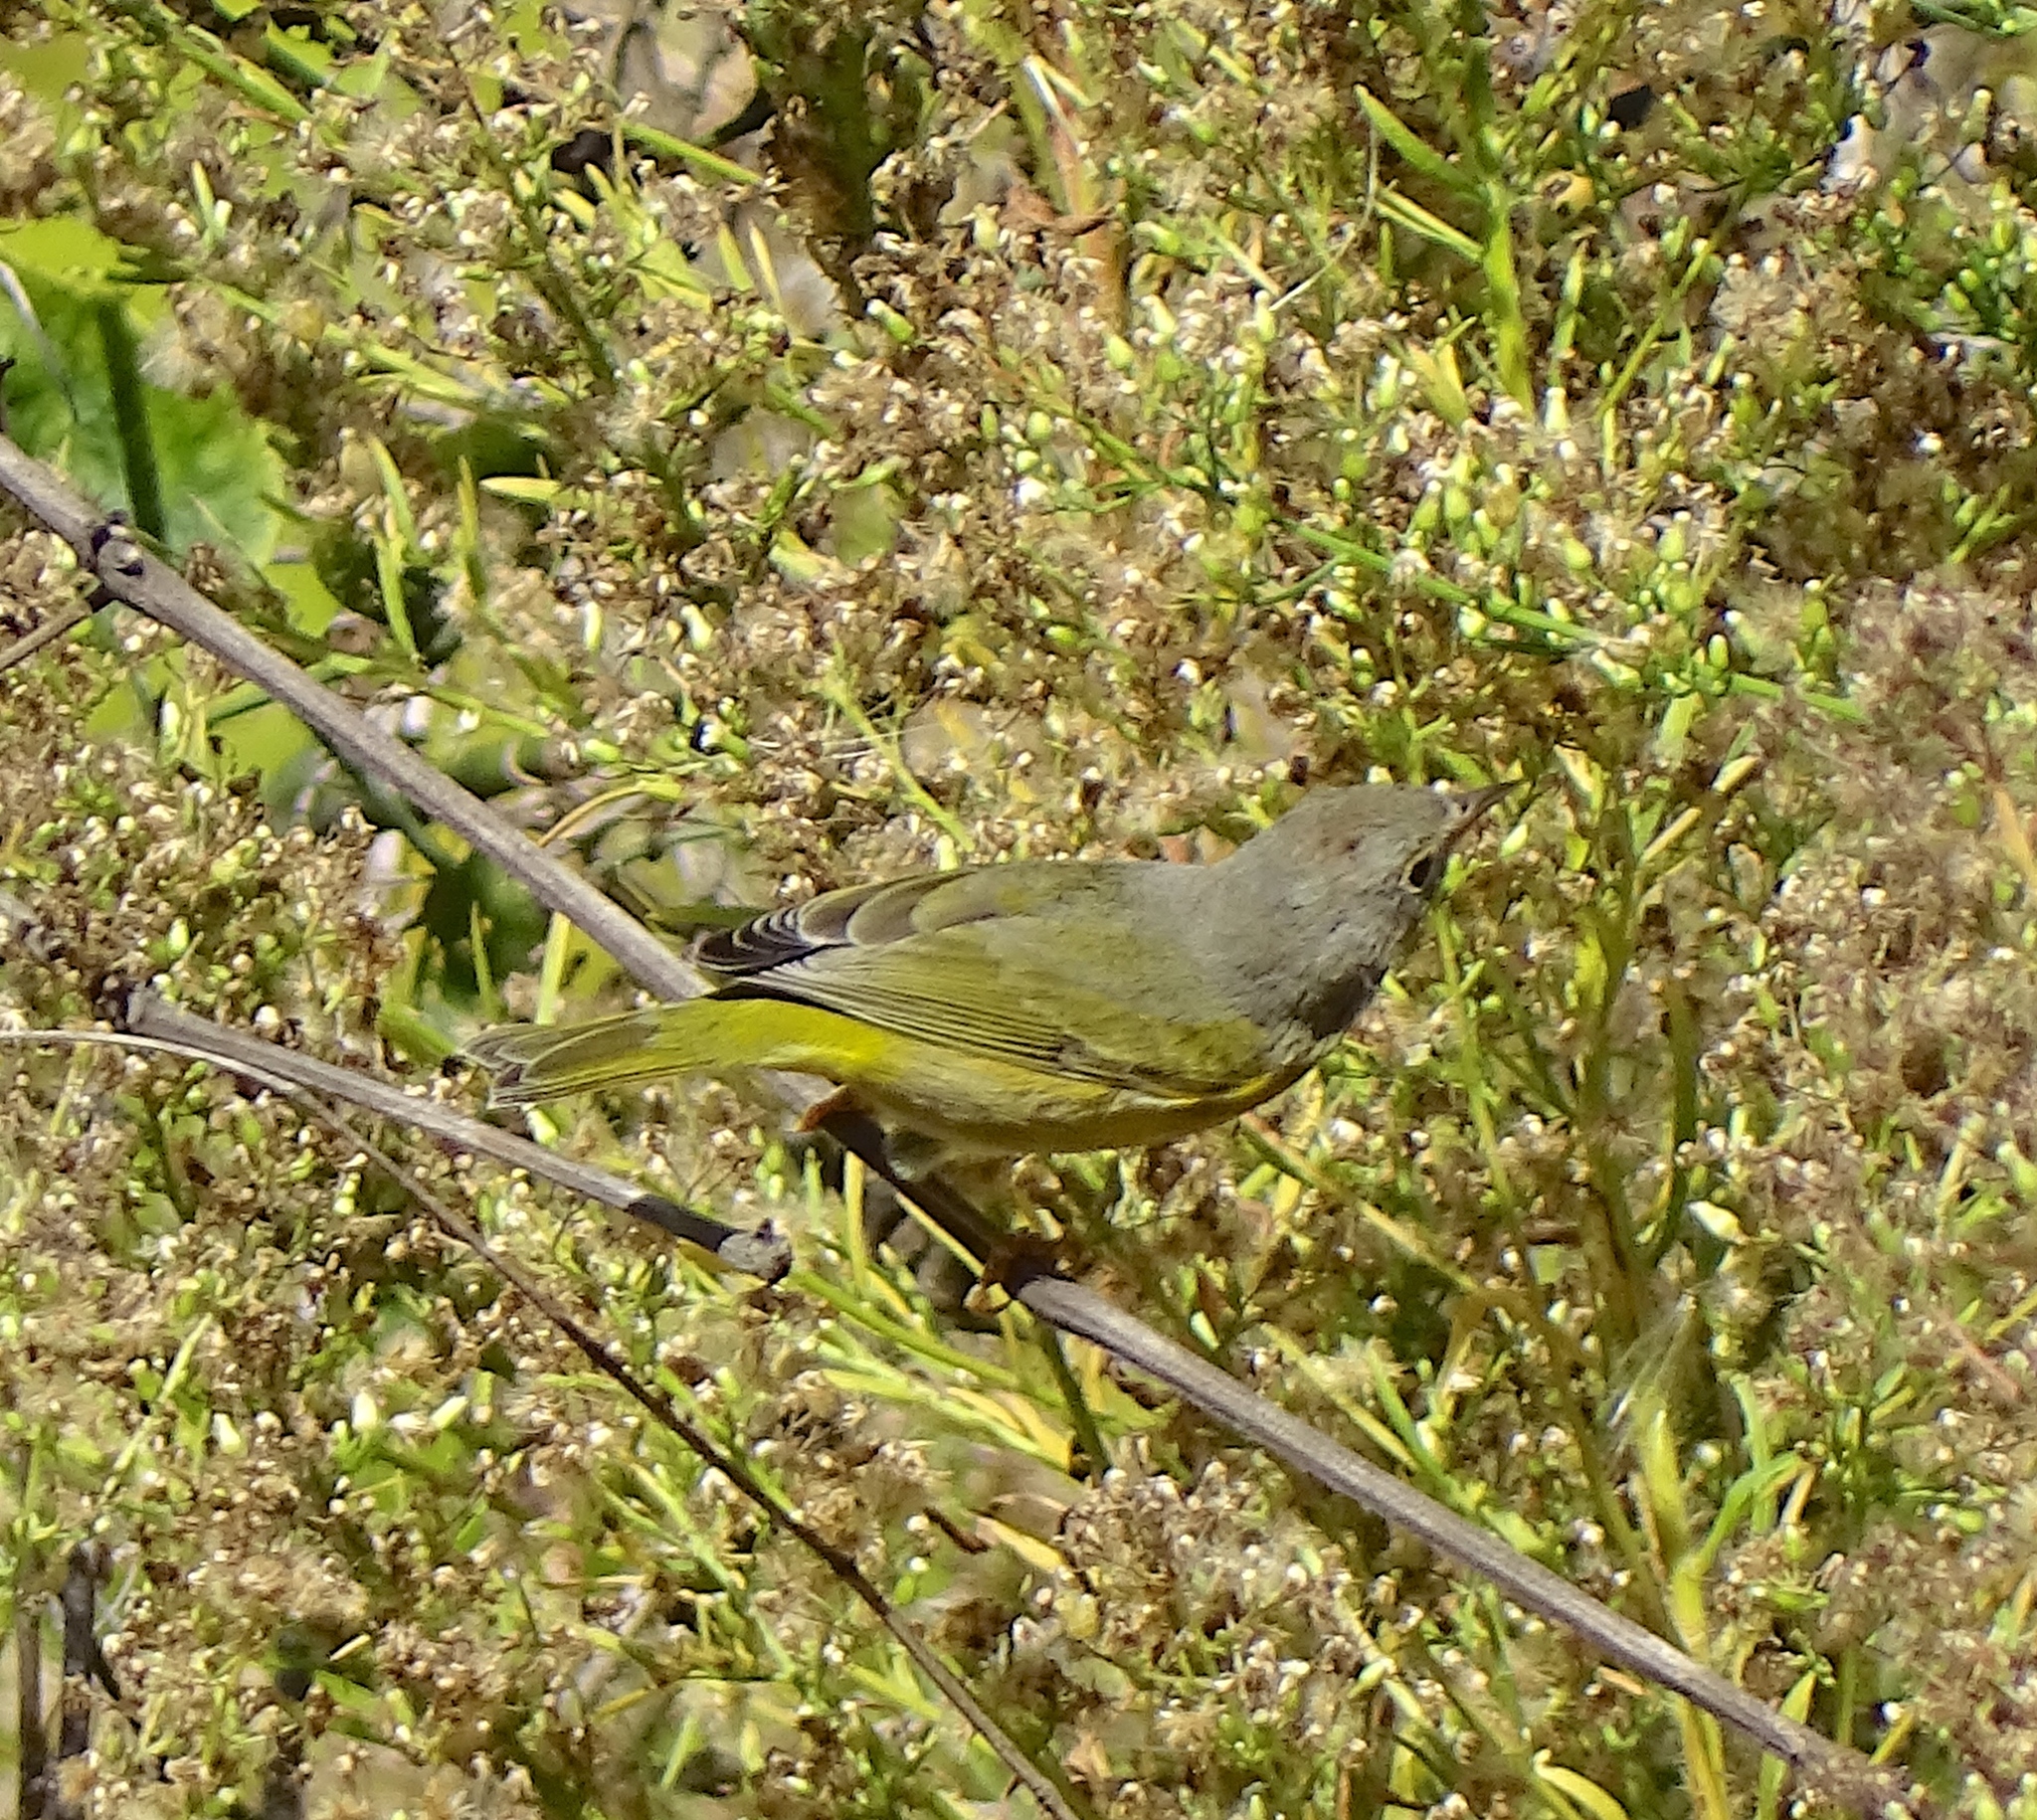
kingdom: Animalia
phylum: Chordata
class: Aves
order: Passeriformes
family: Parulidae
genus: Leiothlypis
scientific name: Leiothlypis ruficapilla
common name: Nashville warbler
